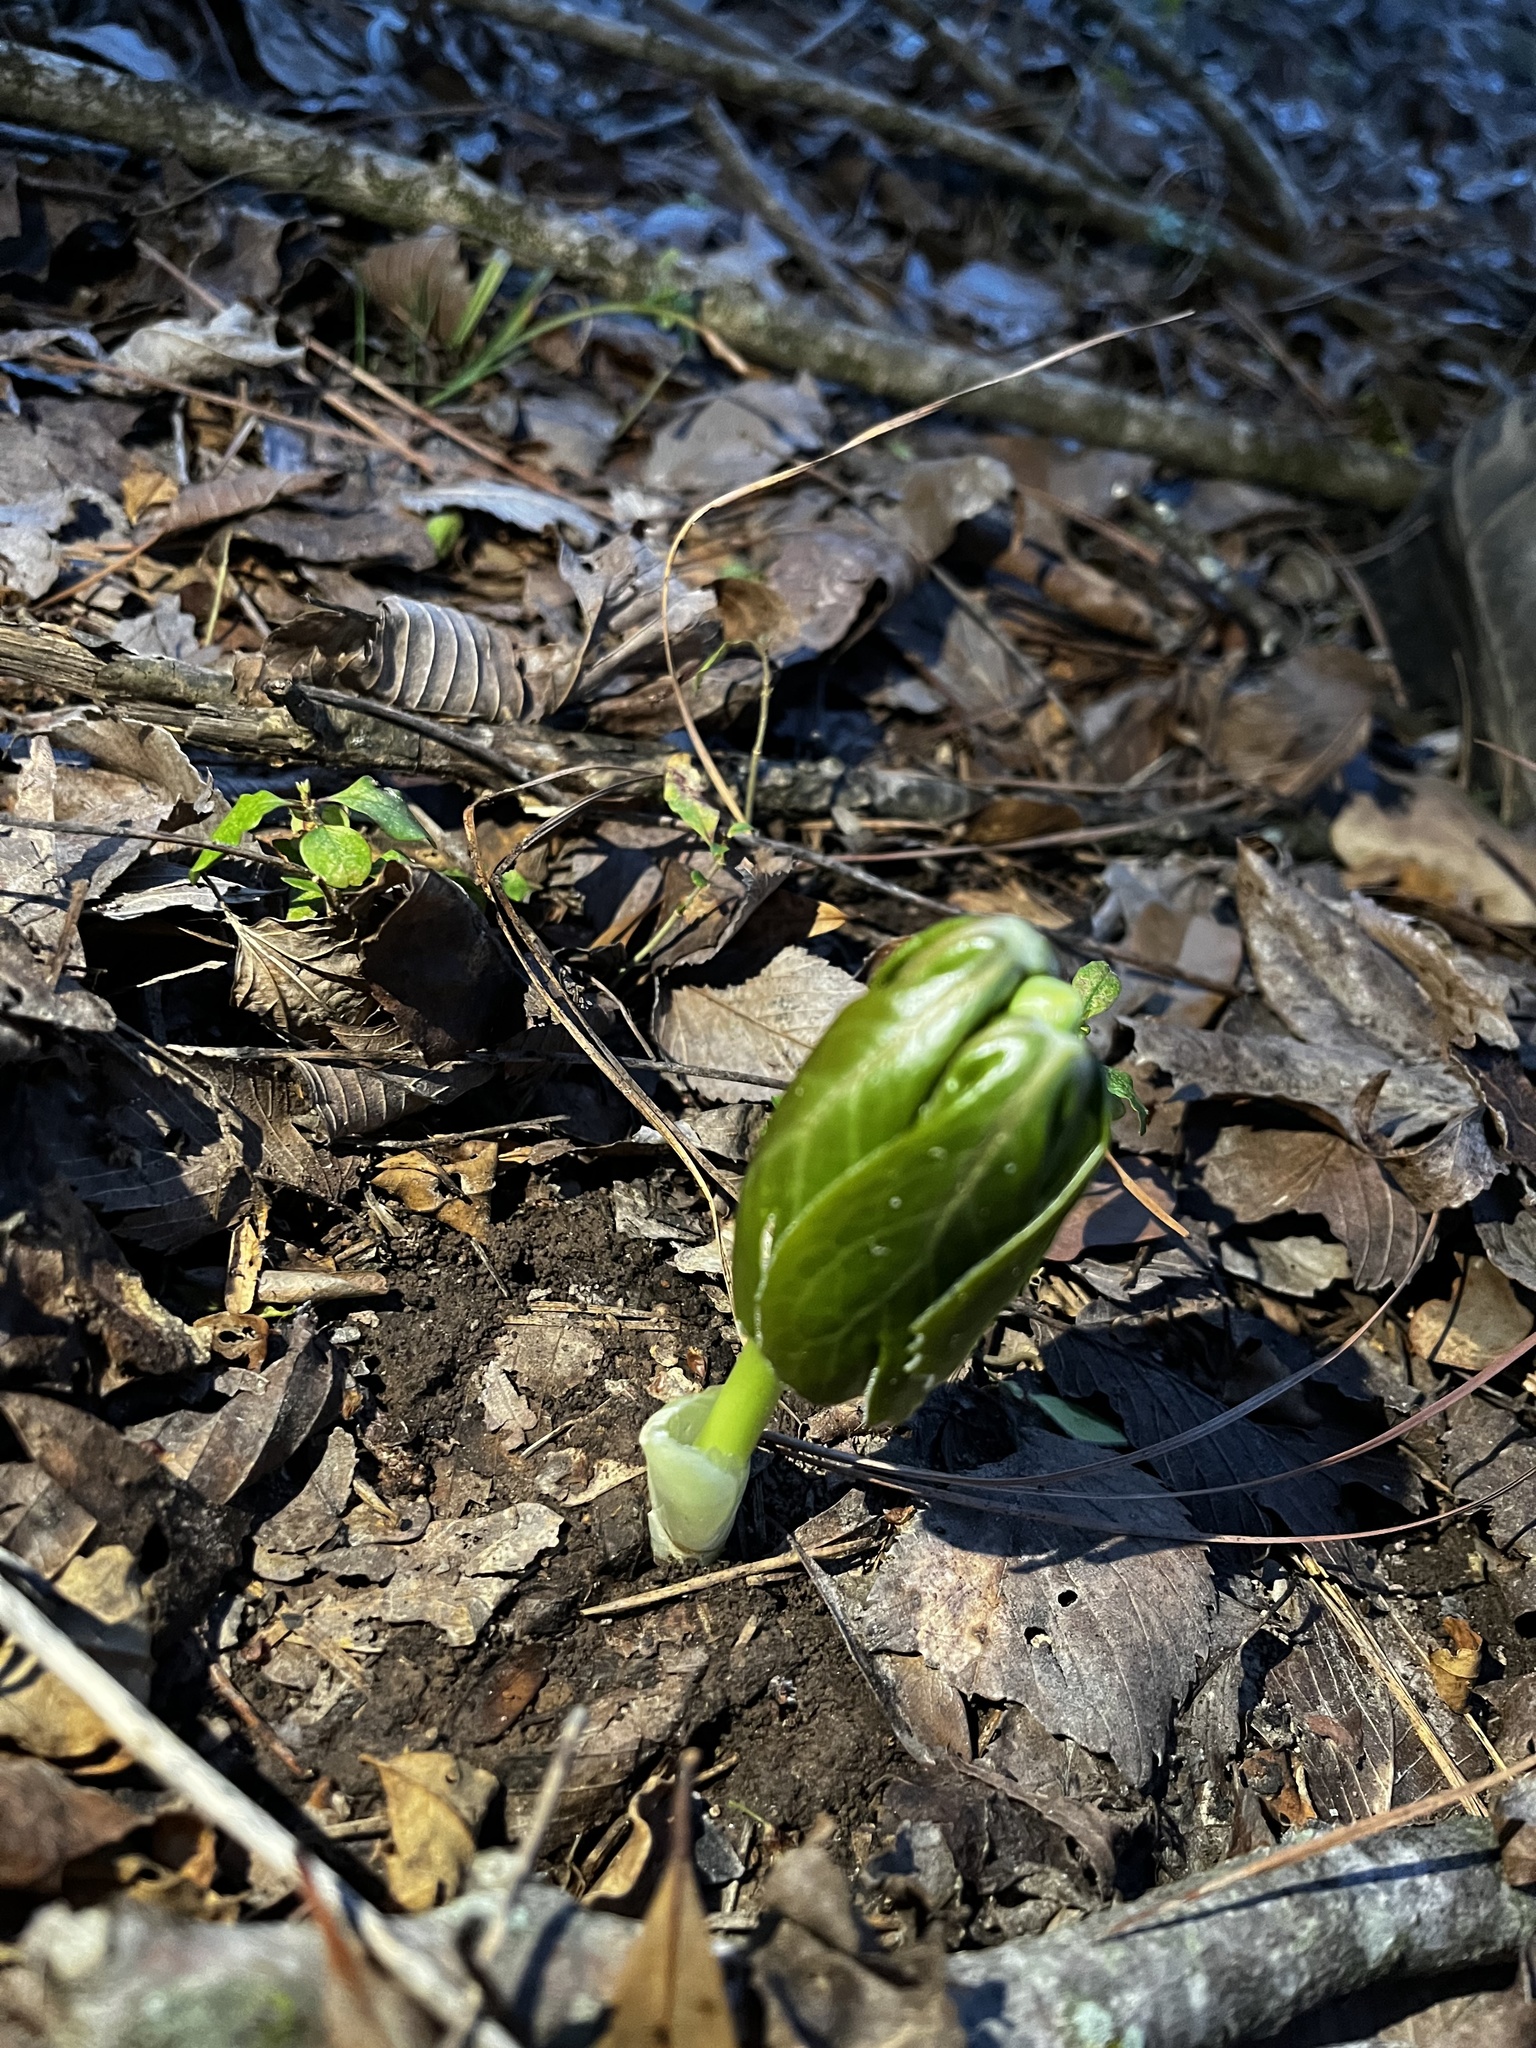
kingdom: Plantae
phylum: Tracheophyta
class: Magnoliopsida
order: Ranunculales
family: Berberidaceae
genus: Podophyllum
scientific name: Podophyllum peltatum
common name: Wild mandrake
